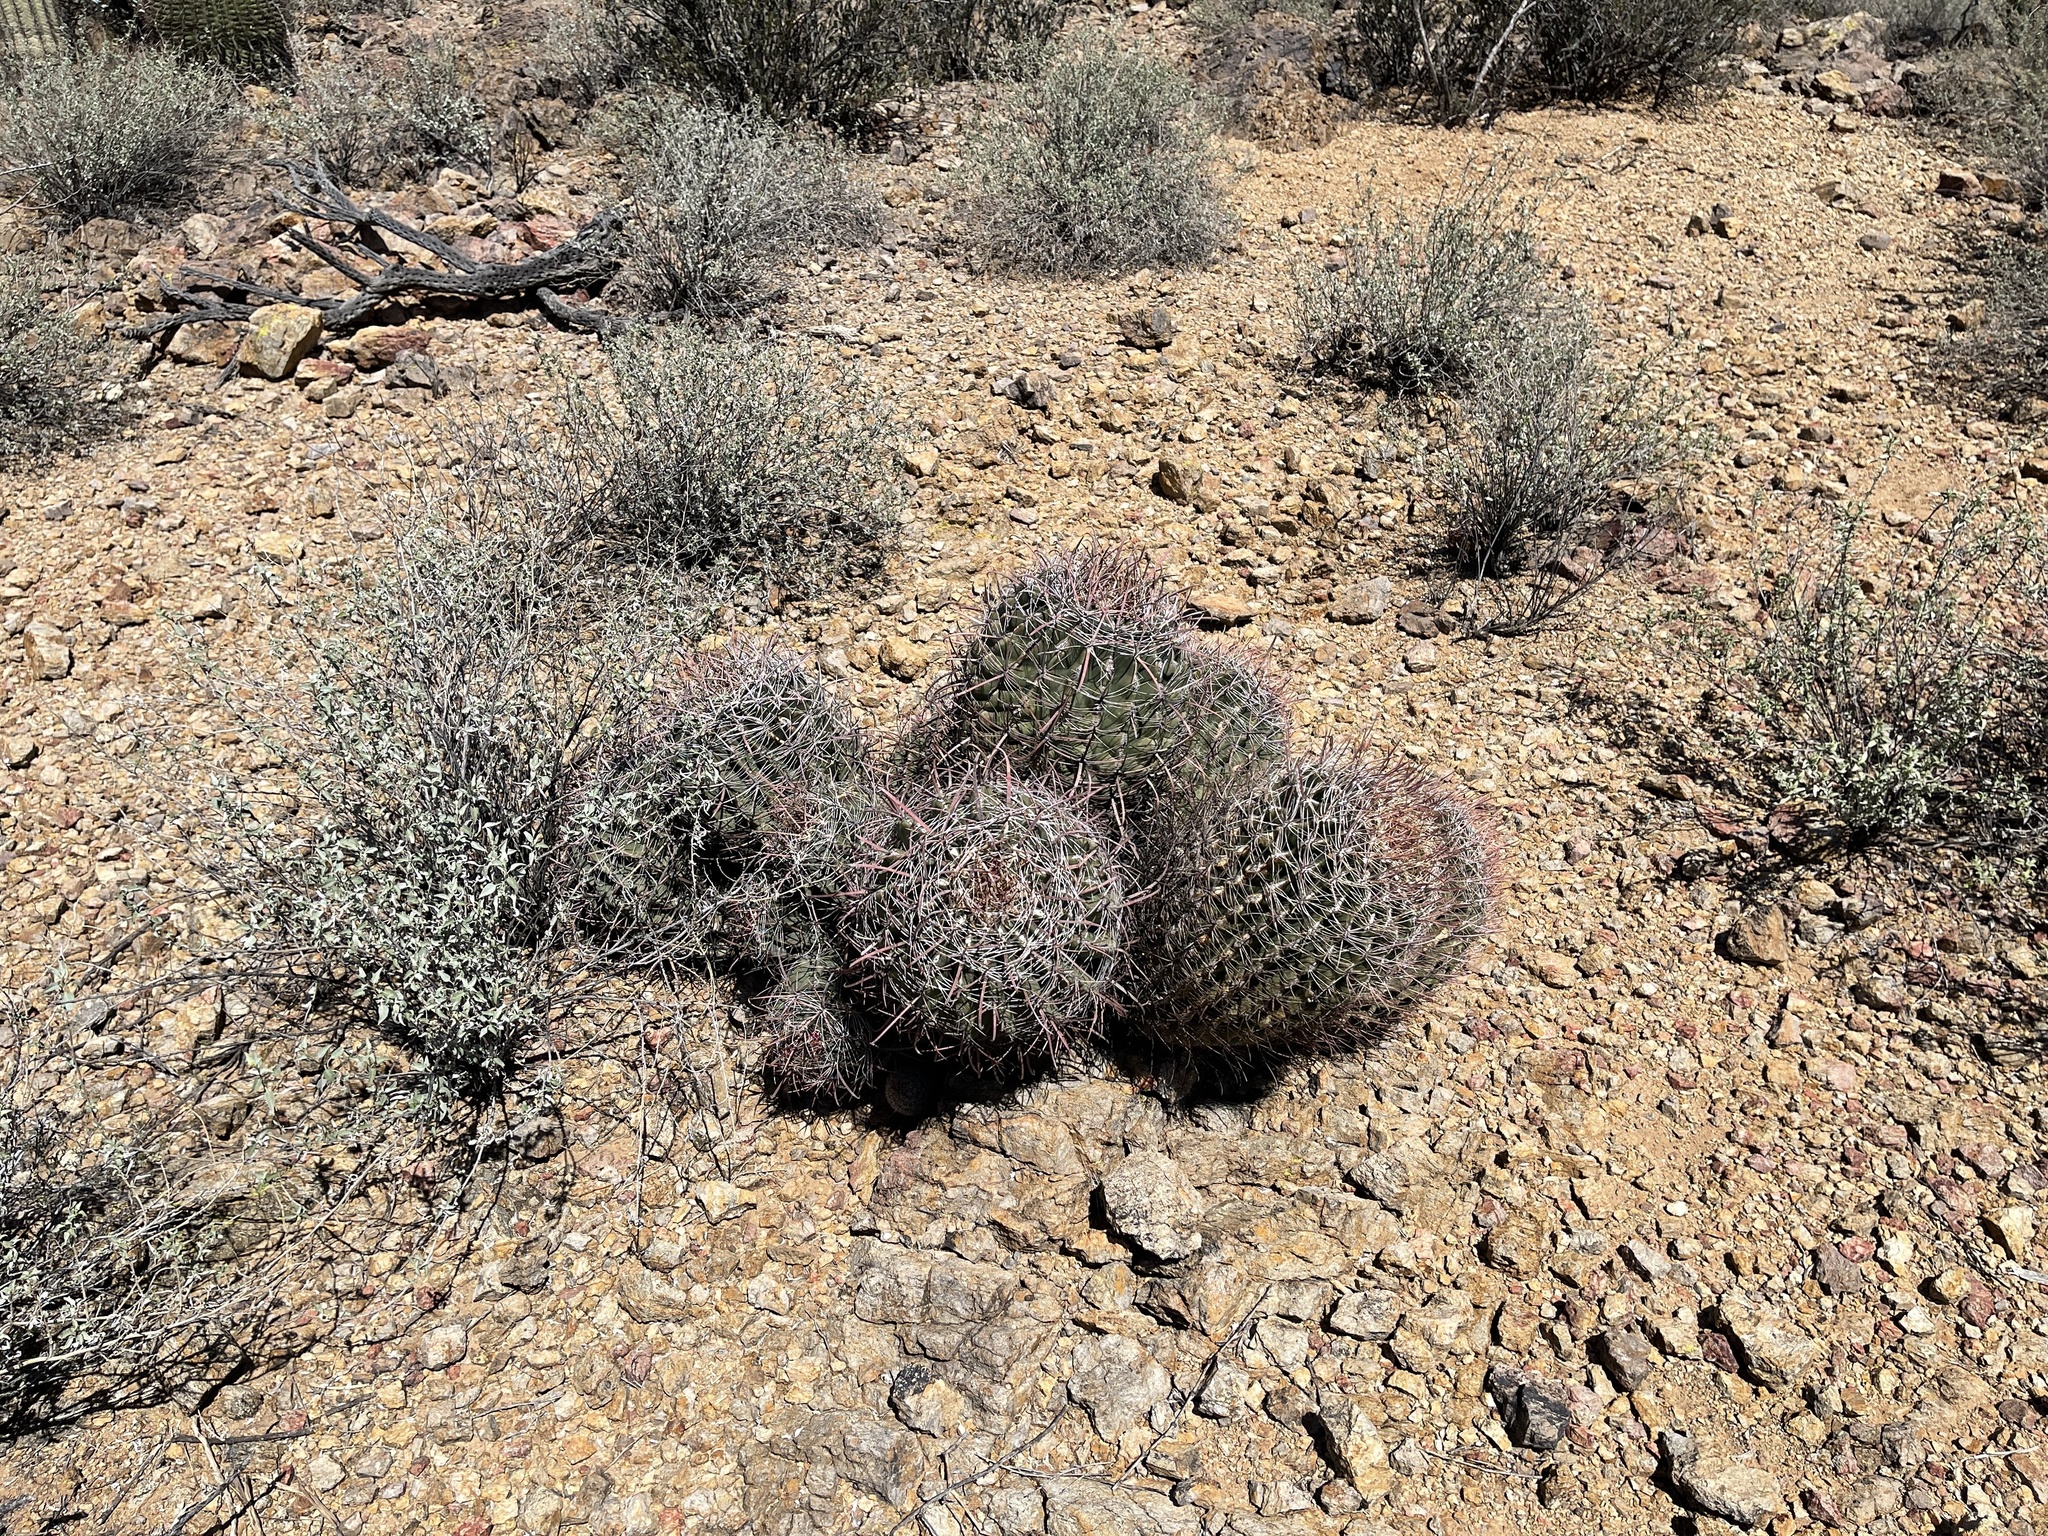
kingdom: Plantae
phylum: Tracheophyta
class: Magnoliopsida
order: Caryophyllales
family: Cactaceae
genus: Ferocactus
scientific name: Ferocactus wislizeni
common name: Candy barrel cactus
